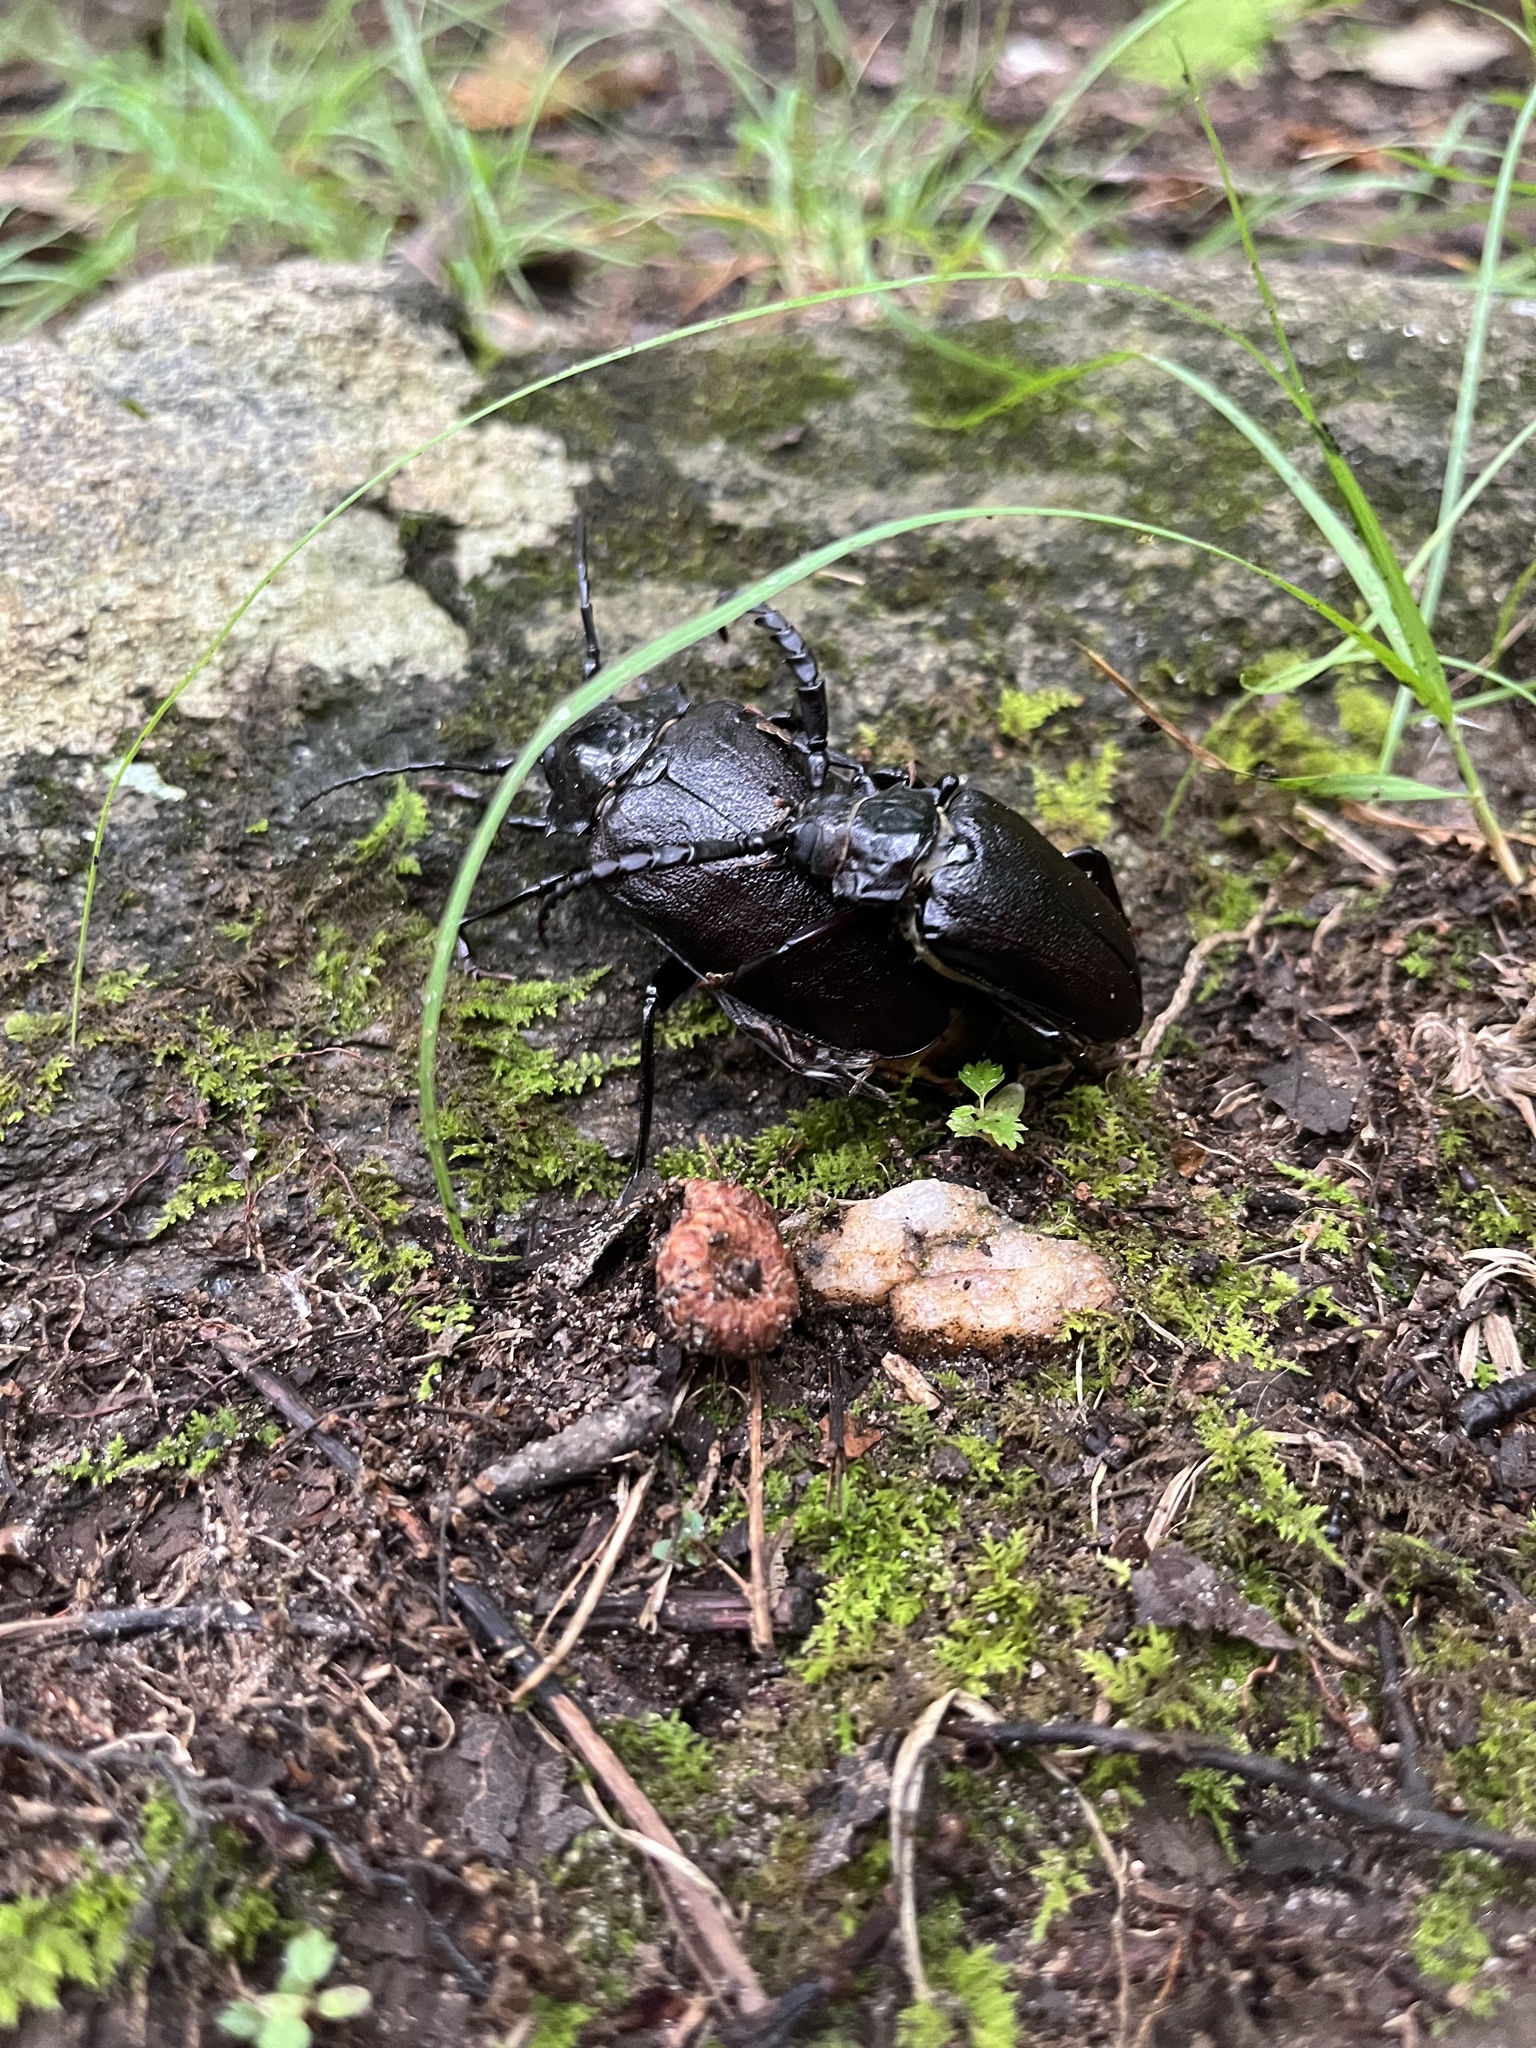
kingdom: Animalia
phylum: Arthropoda
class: Insecta
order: Coleoptera
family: Cerambycidae
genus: Prionus
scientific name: Prionus laticollis
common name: Broad necked prionus
